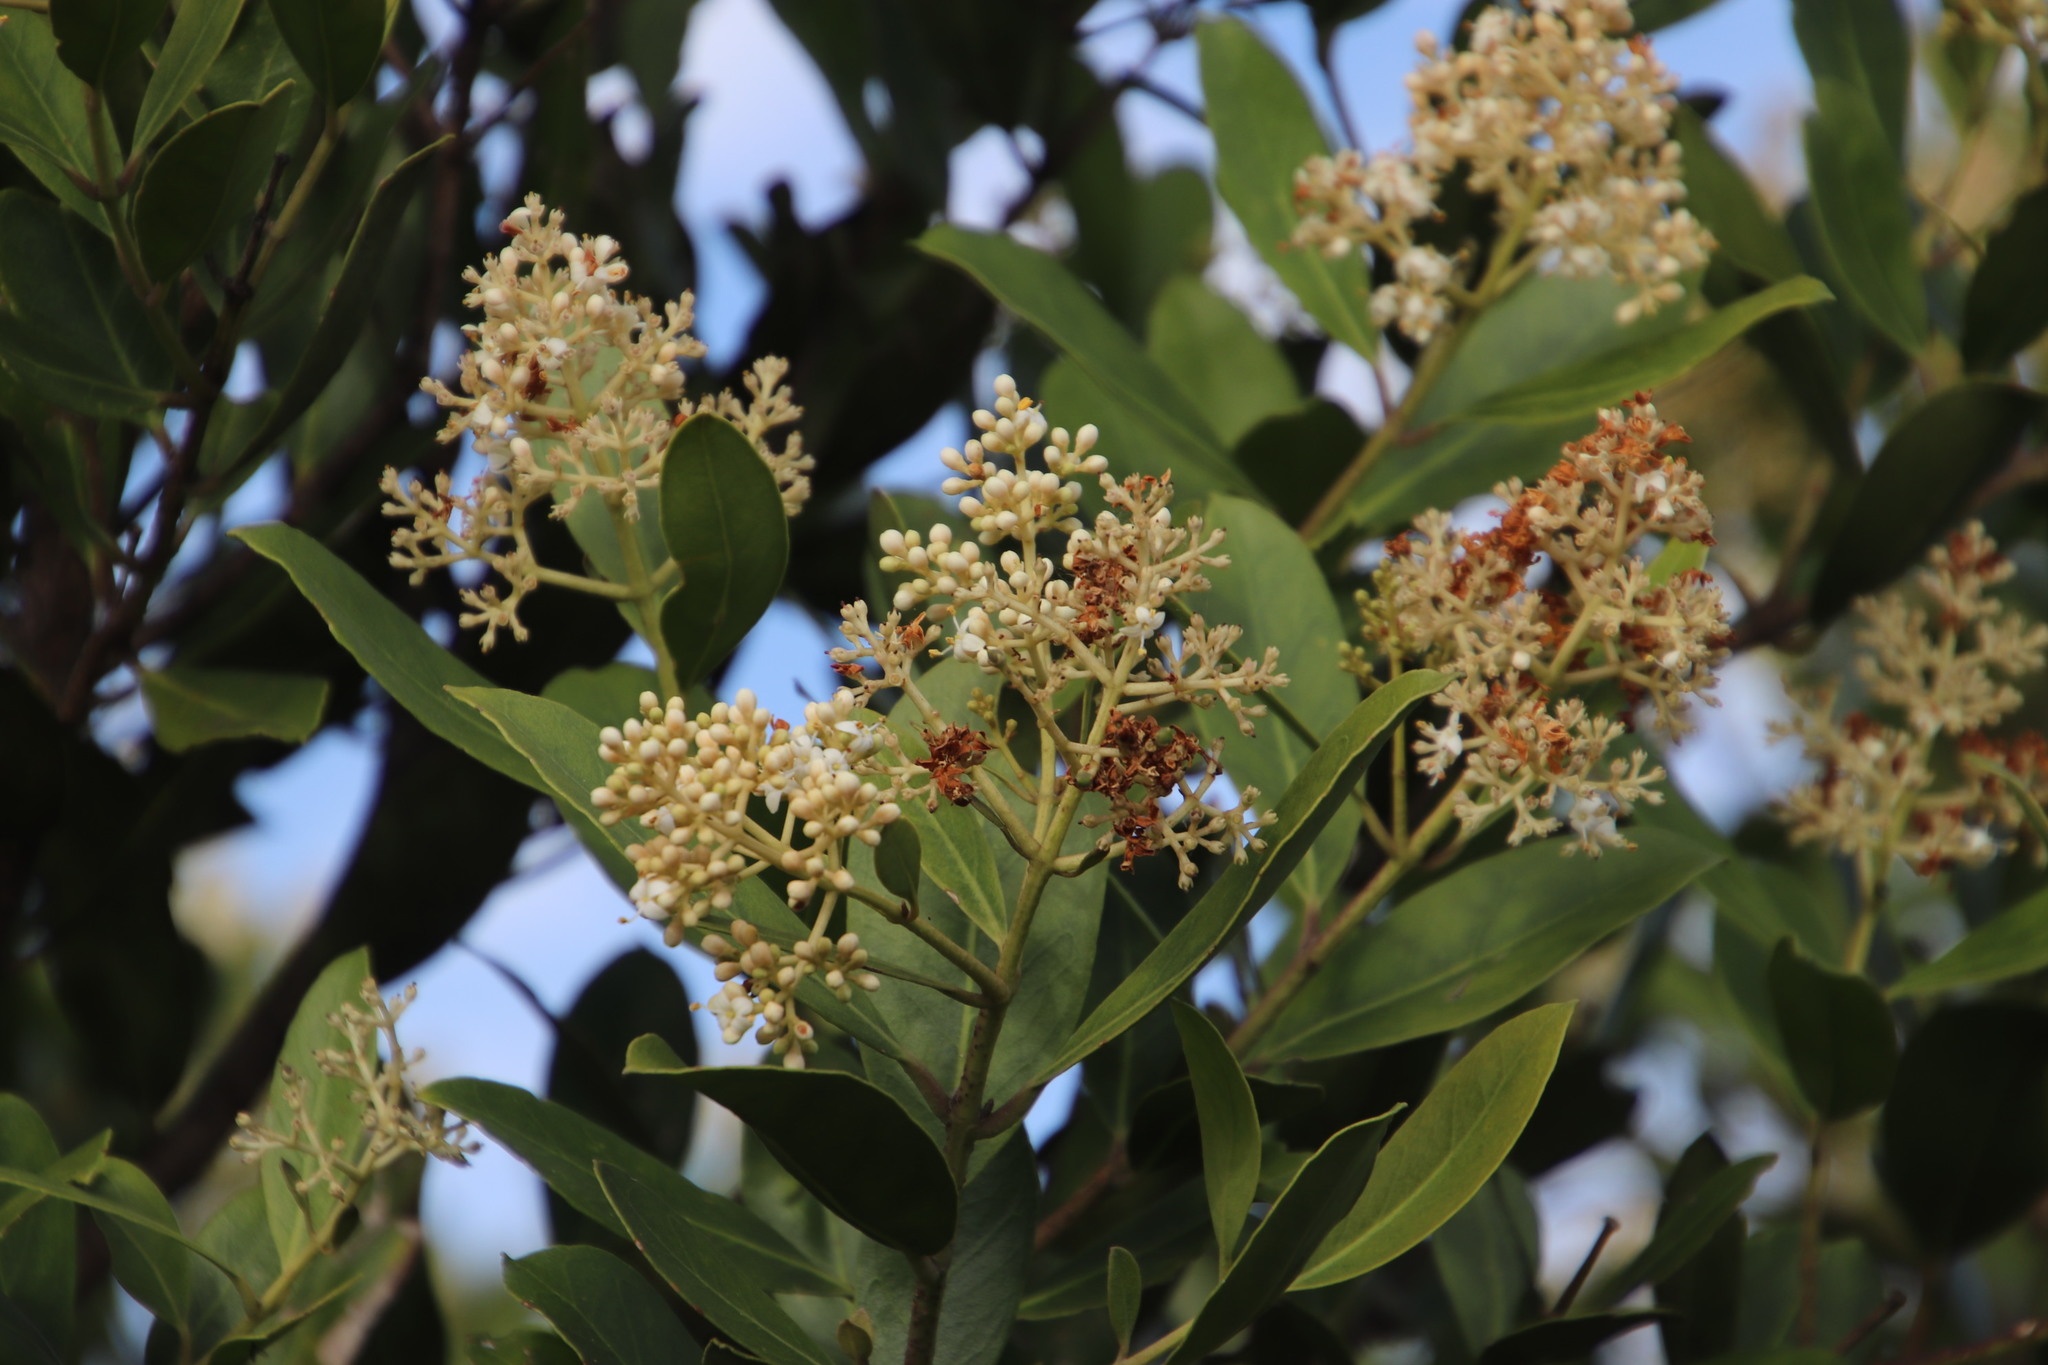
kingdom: Plantae
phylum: Tracheophyta
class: Magnoliopsida
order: Lamiales
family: Oleaceae
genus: Olea
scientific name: Olea capensis
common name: Black ironwood
